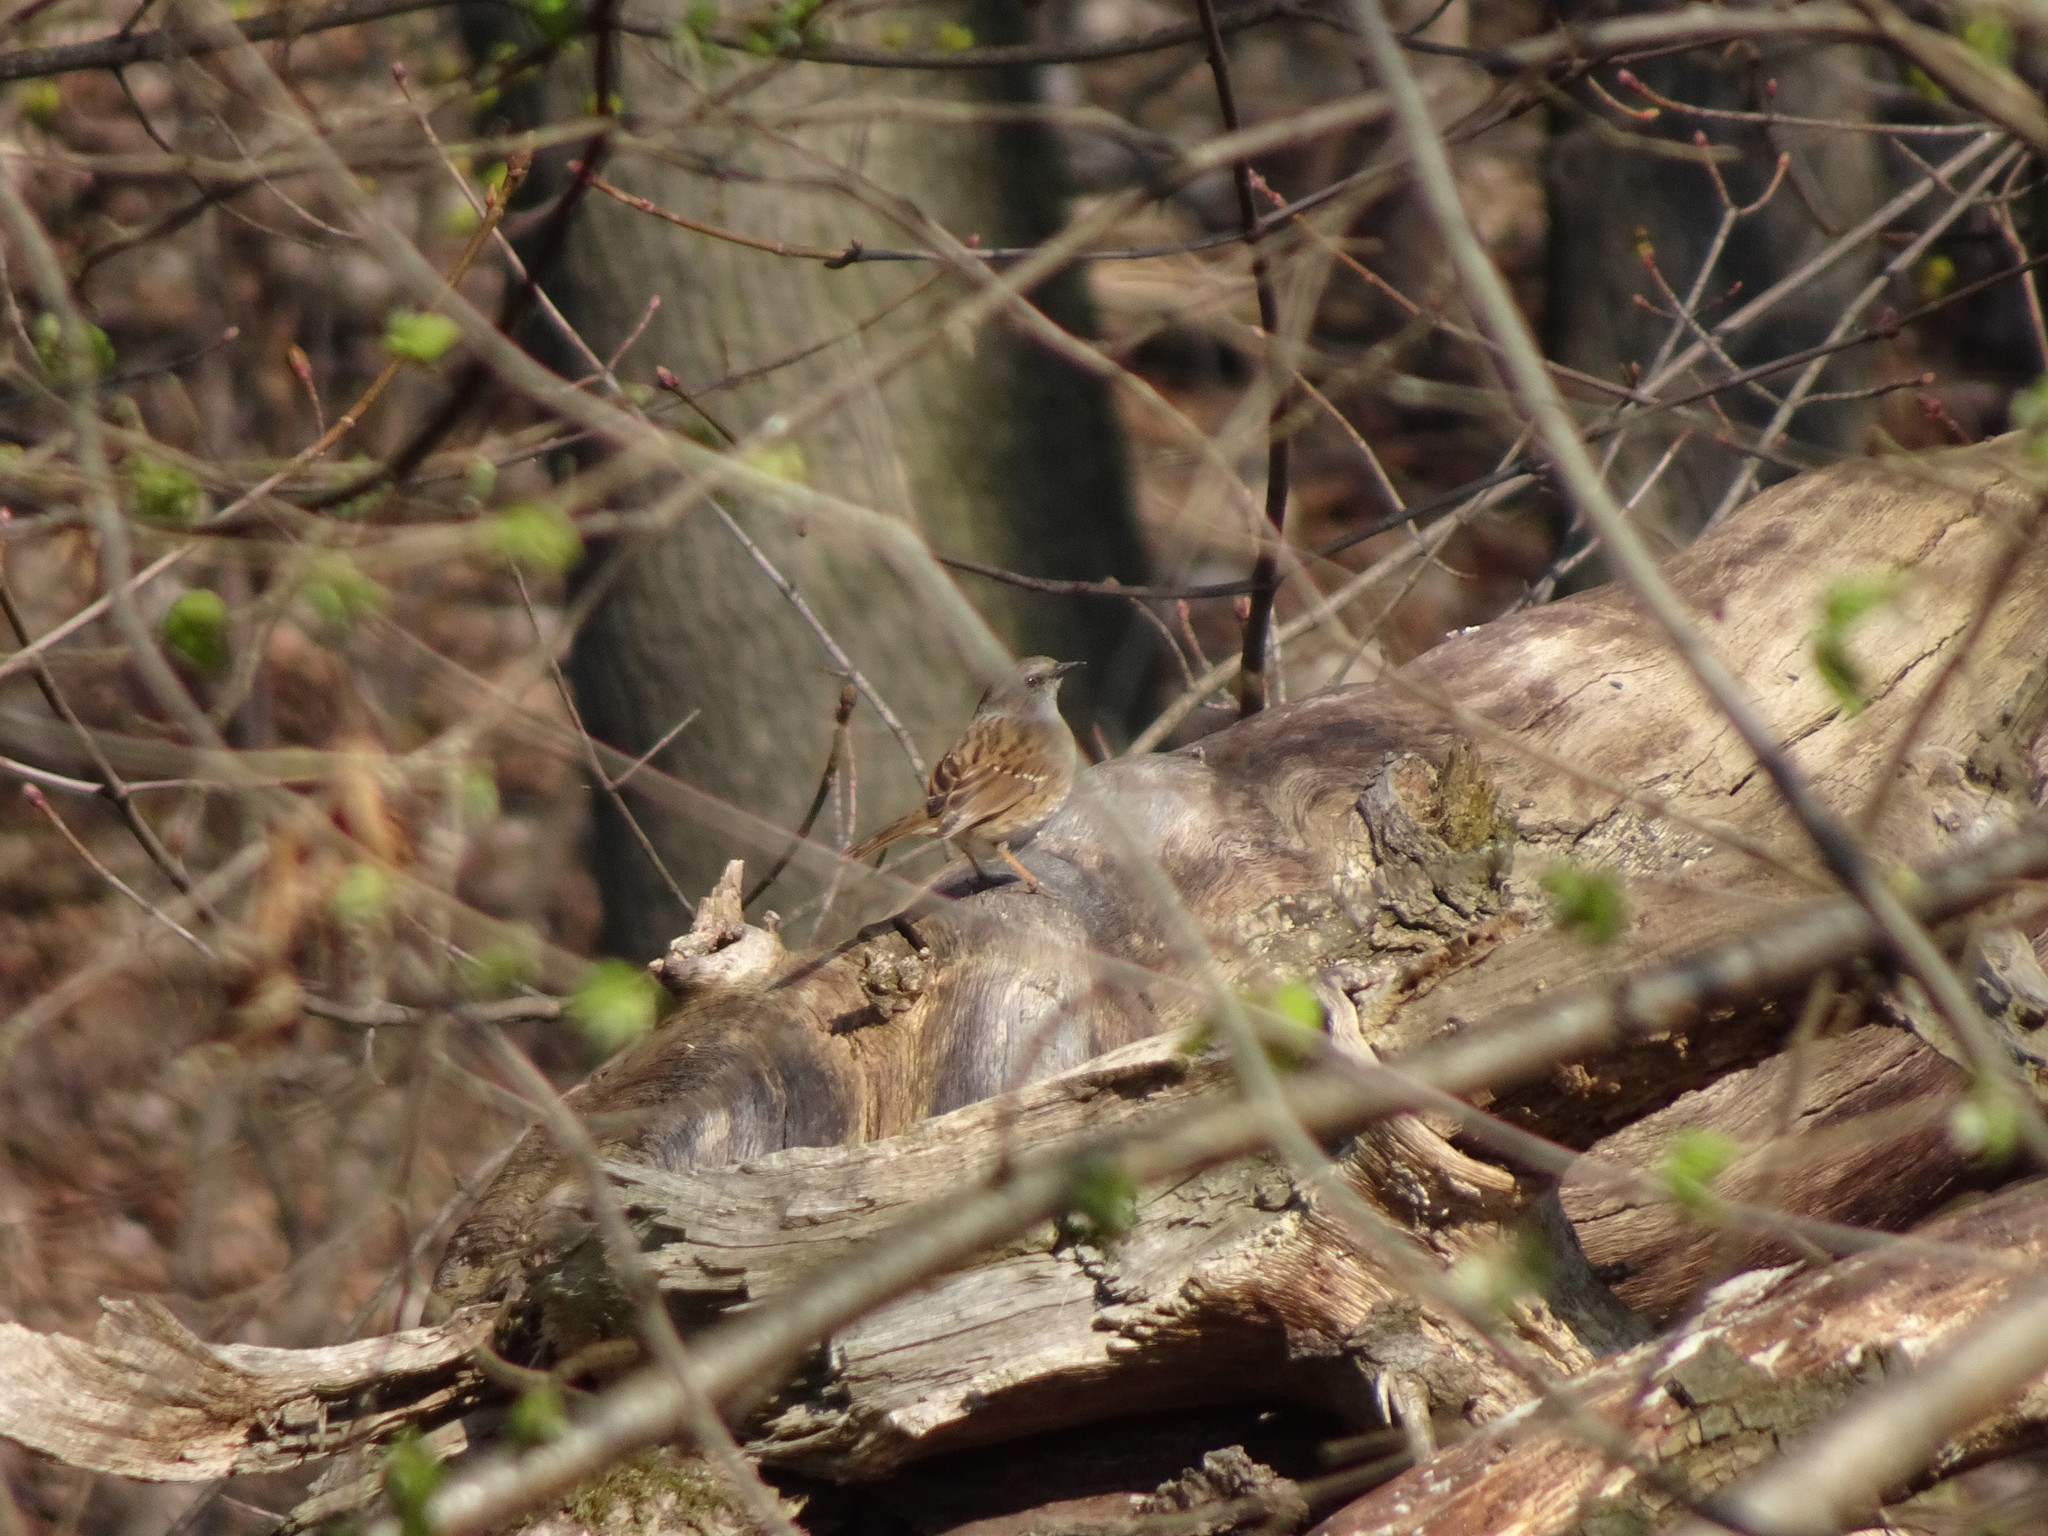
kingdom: Animalia
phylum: Chordata
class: Aves
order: Passeriformes
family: Prunellidae
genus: Prunella
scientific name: Prunella modularis
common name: Dunnock
